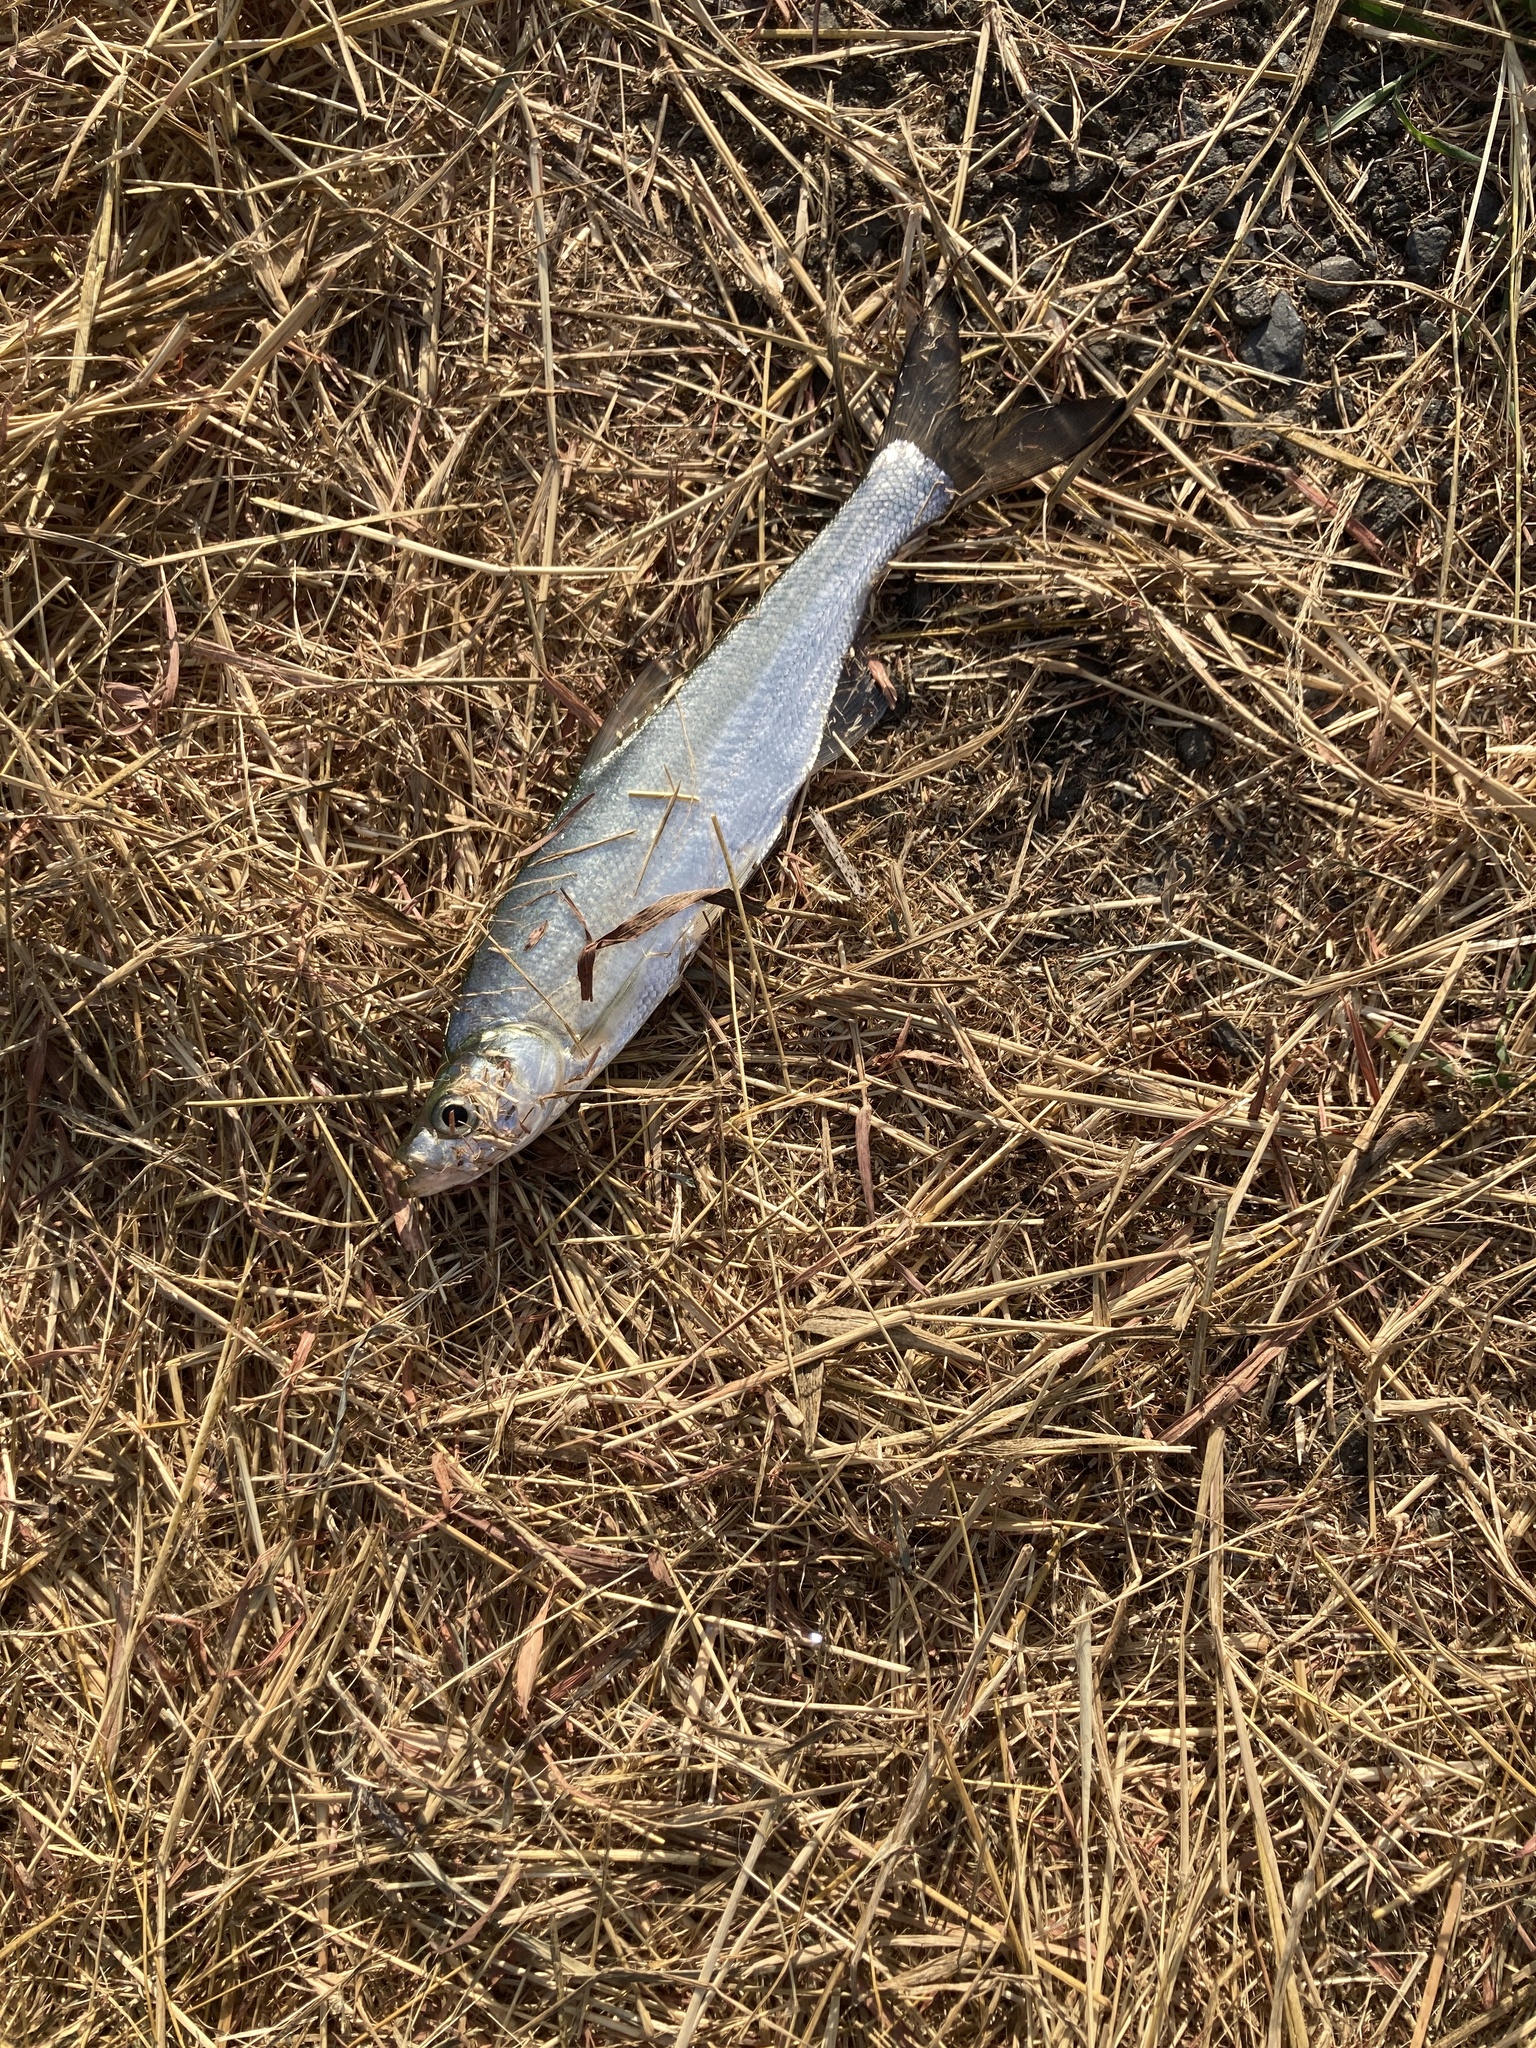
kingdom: Animalia
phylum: Chordata
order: Cypriniformes
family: Cyprinidae
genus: Culter
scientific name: Culter alburnus
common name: Grass carp
